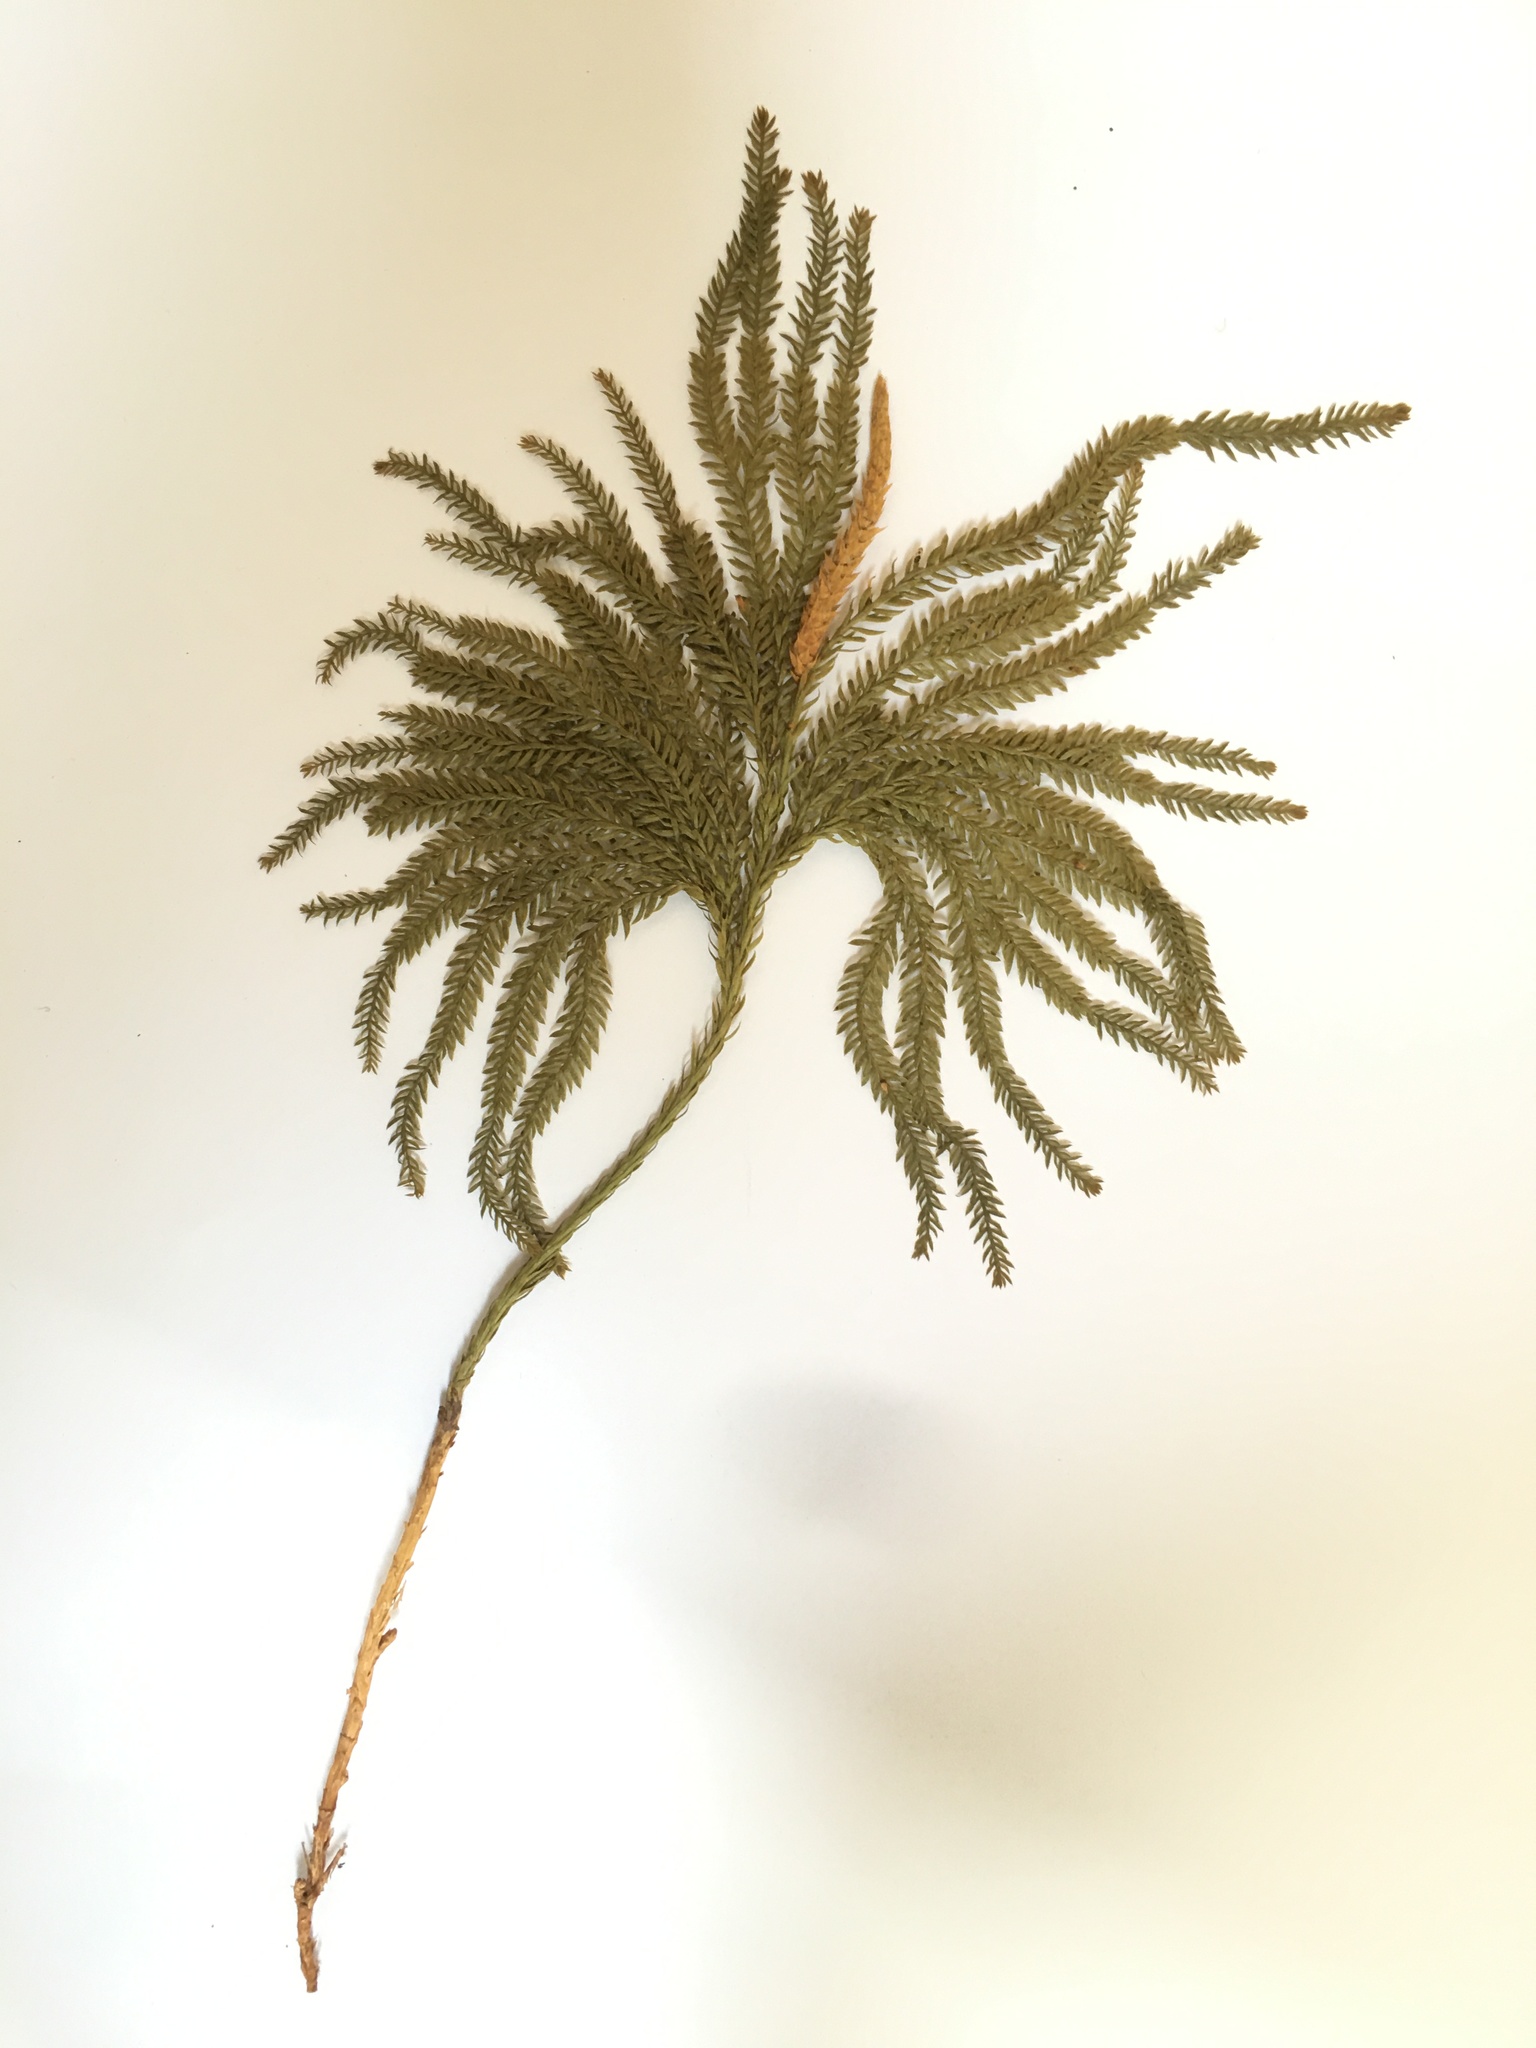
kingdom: Plantae
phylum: Tracheophyta
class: Lycopodiopsida
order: Lycopodiales
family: Lycopodiaceae
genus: Dendrolycopodium
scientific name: Dendrolycopodium obscurum
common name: Common ground-pine
